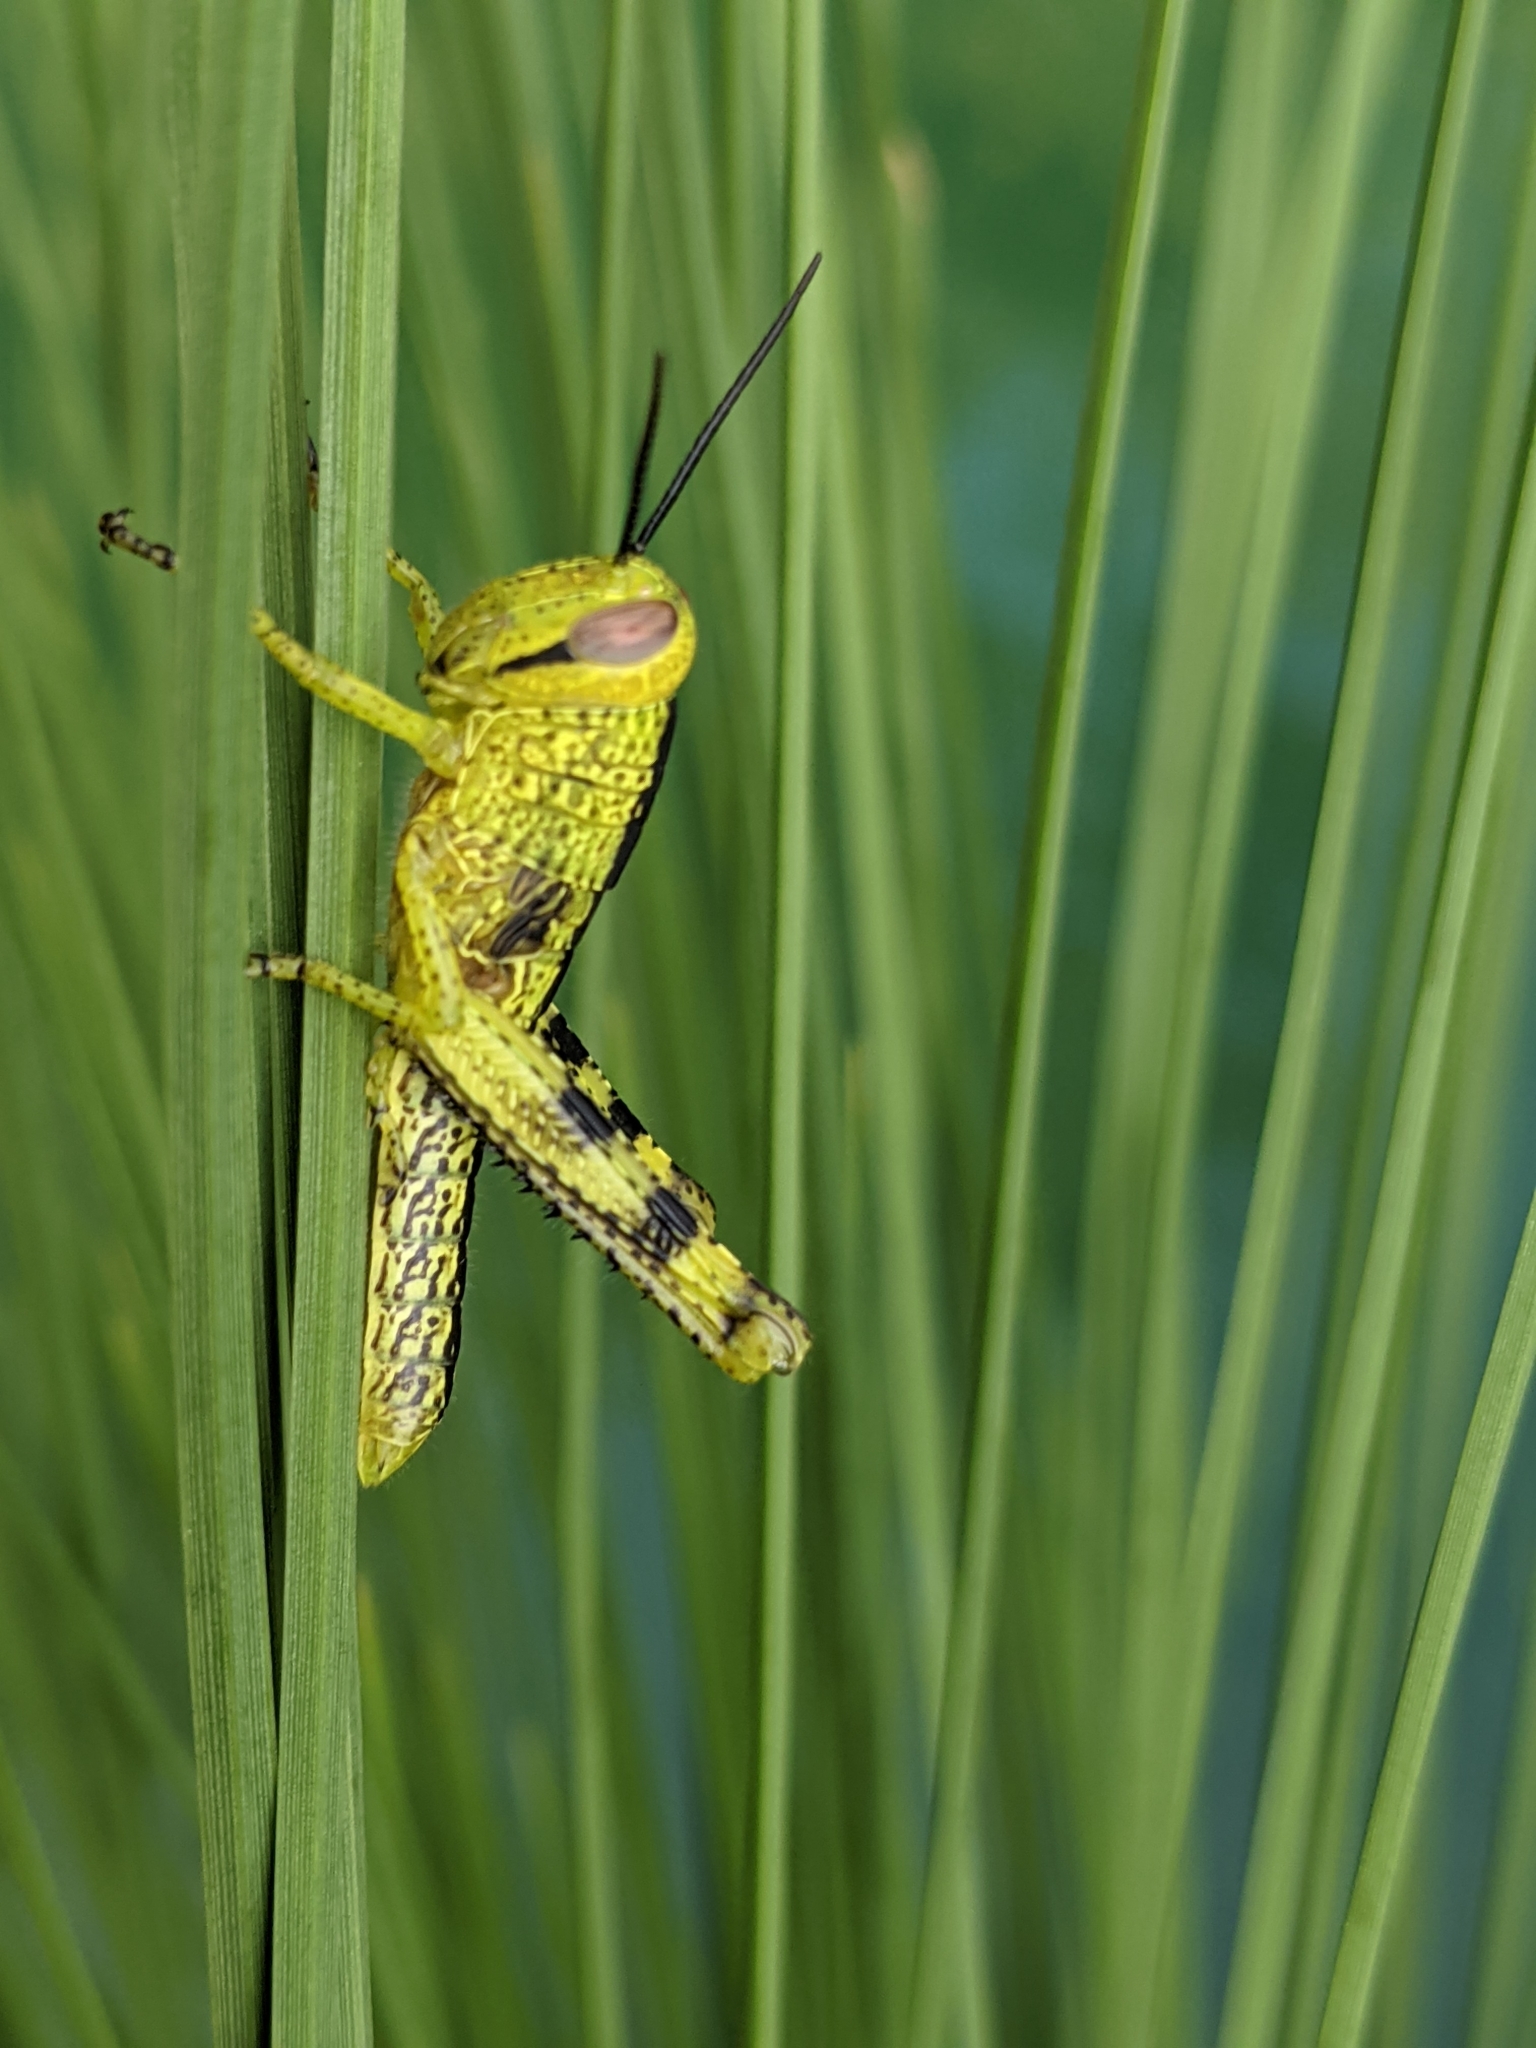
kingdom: Animalia
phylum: Arthropoda
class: Insecta
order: Orthoptera
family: Acrididae
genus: Valanga
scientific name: Valanga irregularis
